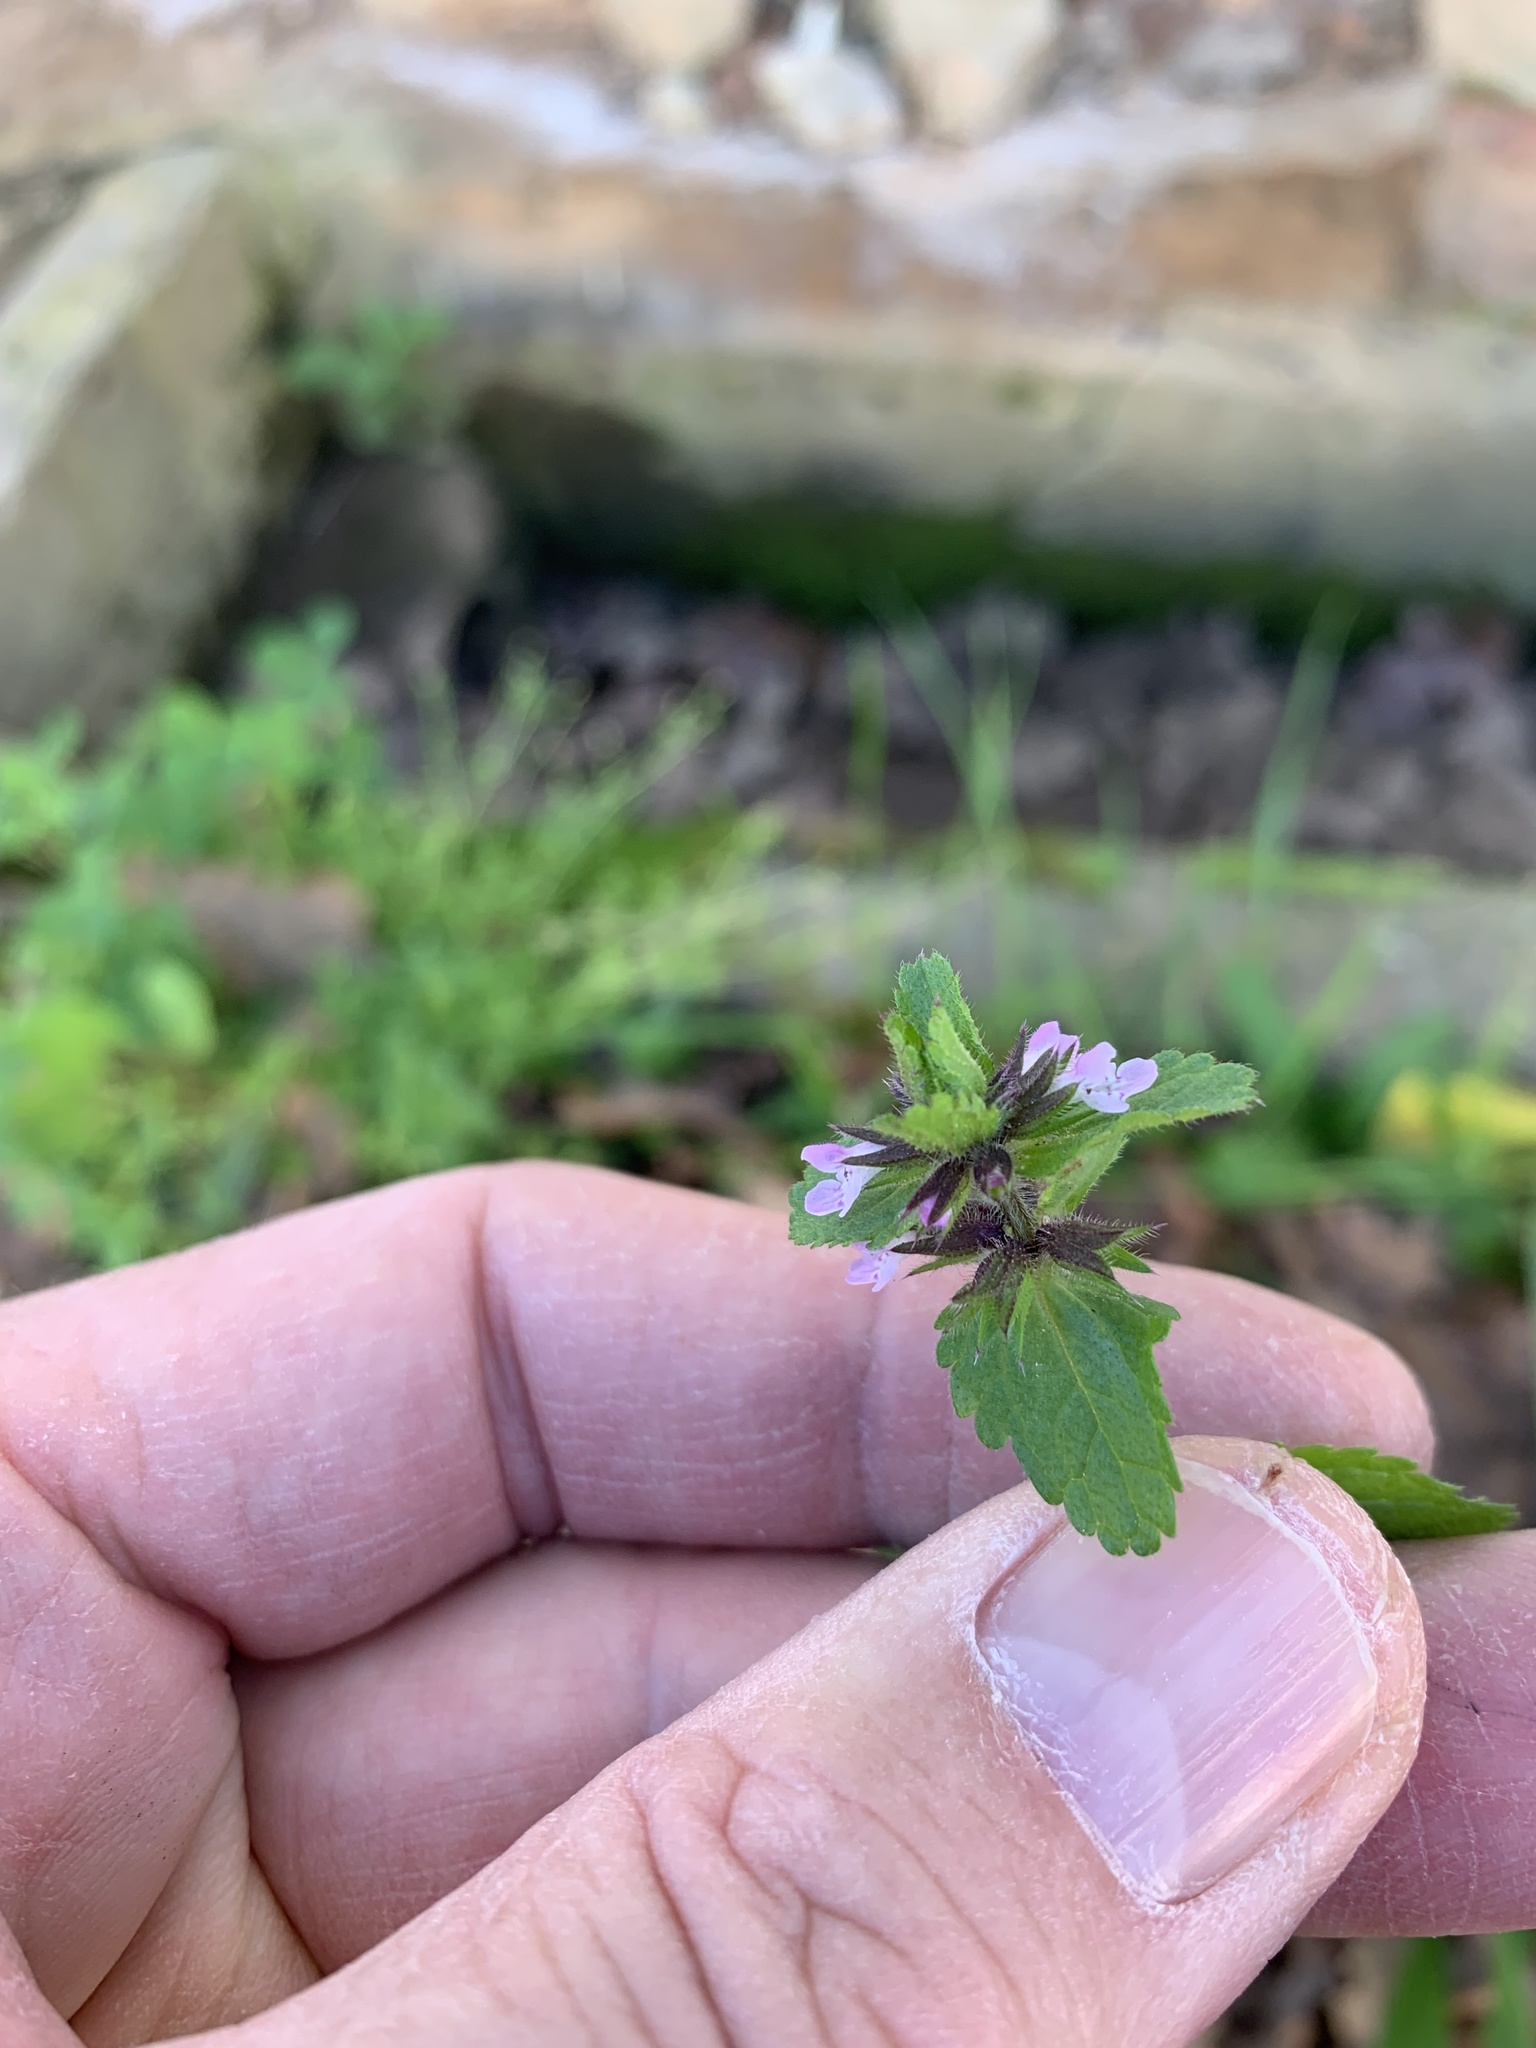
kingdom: Plantae
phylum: Tracheophyta
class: Magnoliopsida
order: Lamiales
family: Lamiaceae
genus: Stachys
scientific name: Stachys arvensis
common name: Field woundwort
